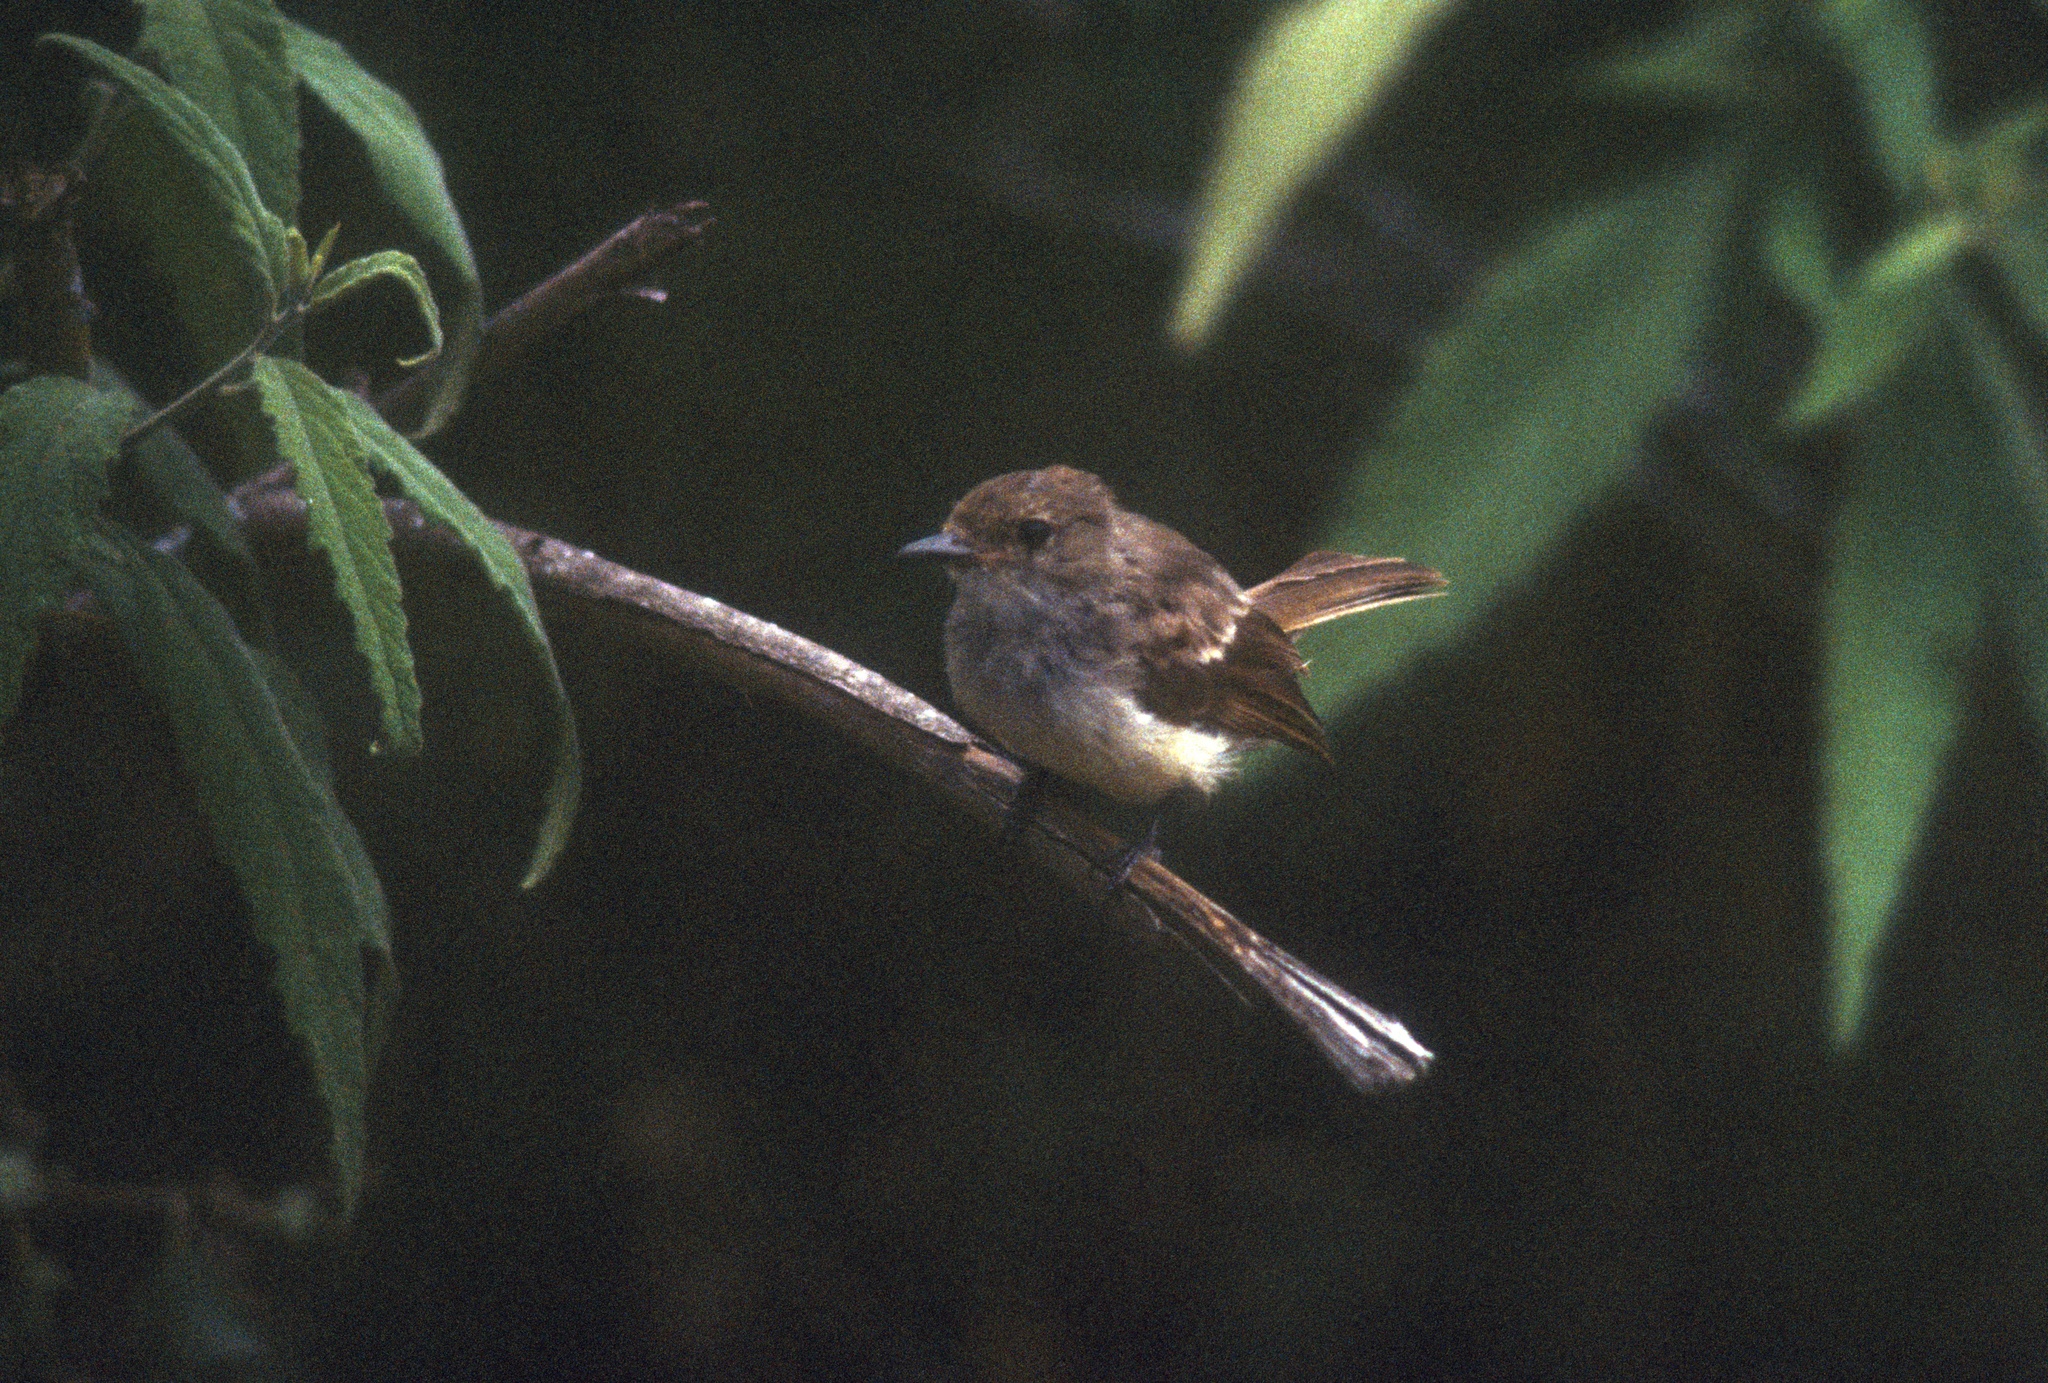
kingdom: Animalia
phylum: Chordata
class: Aves
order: Passeriformes
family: Tyrannidae
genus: Myiarchus
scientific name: Myiarchus magnirostris
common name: Galapagos flycatcher
